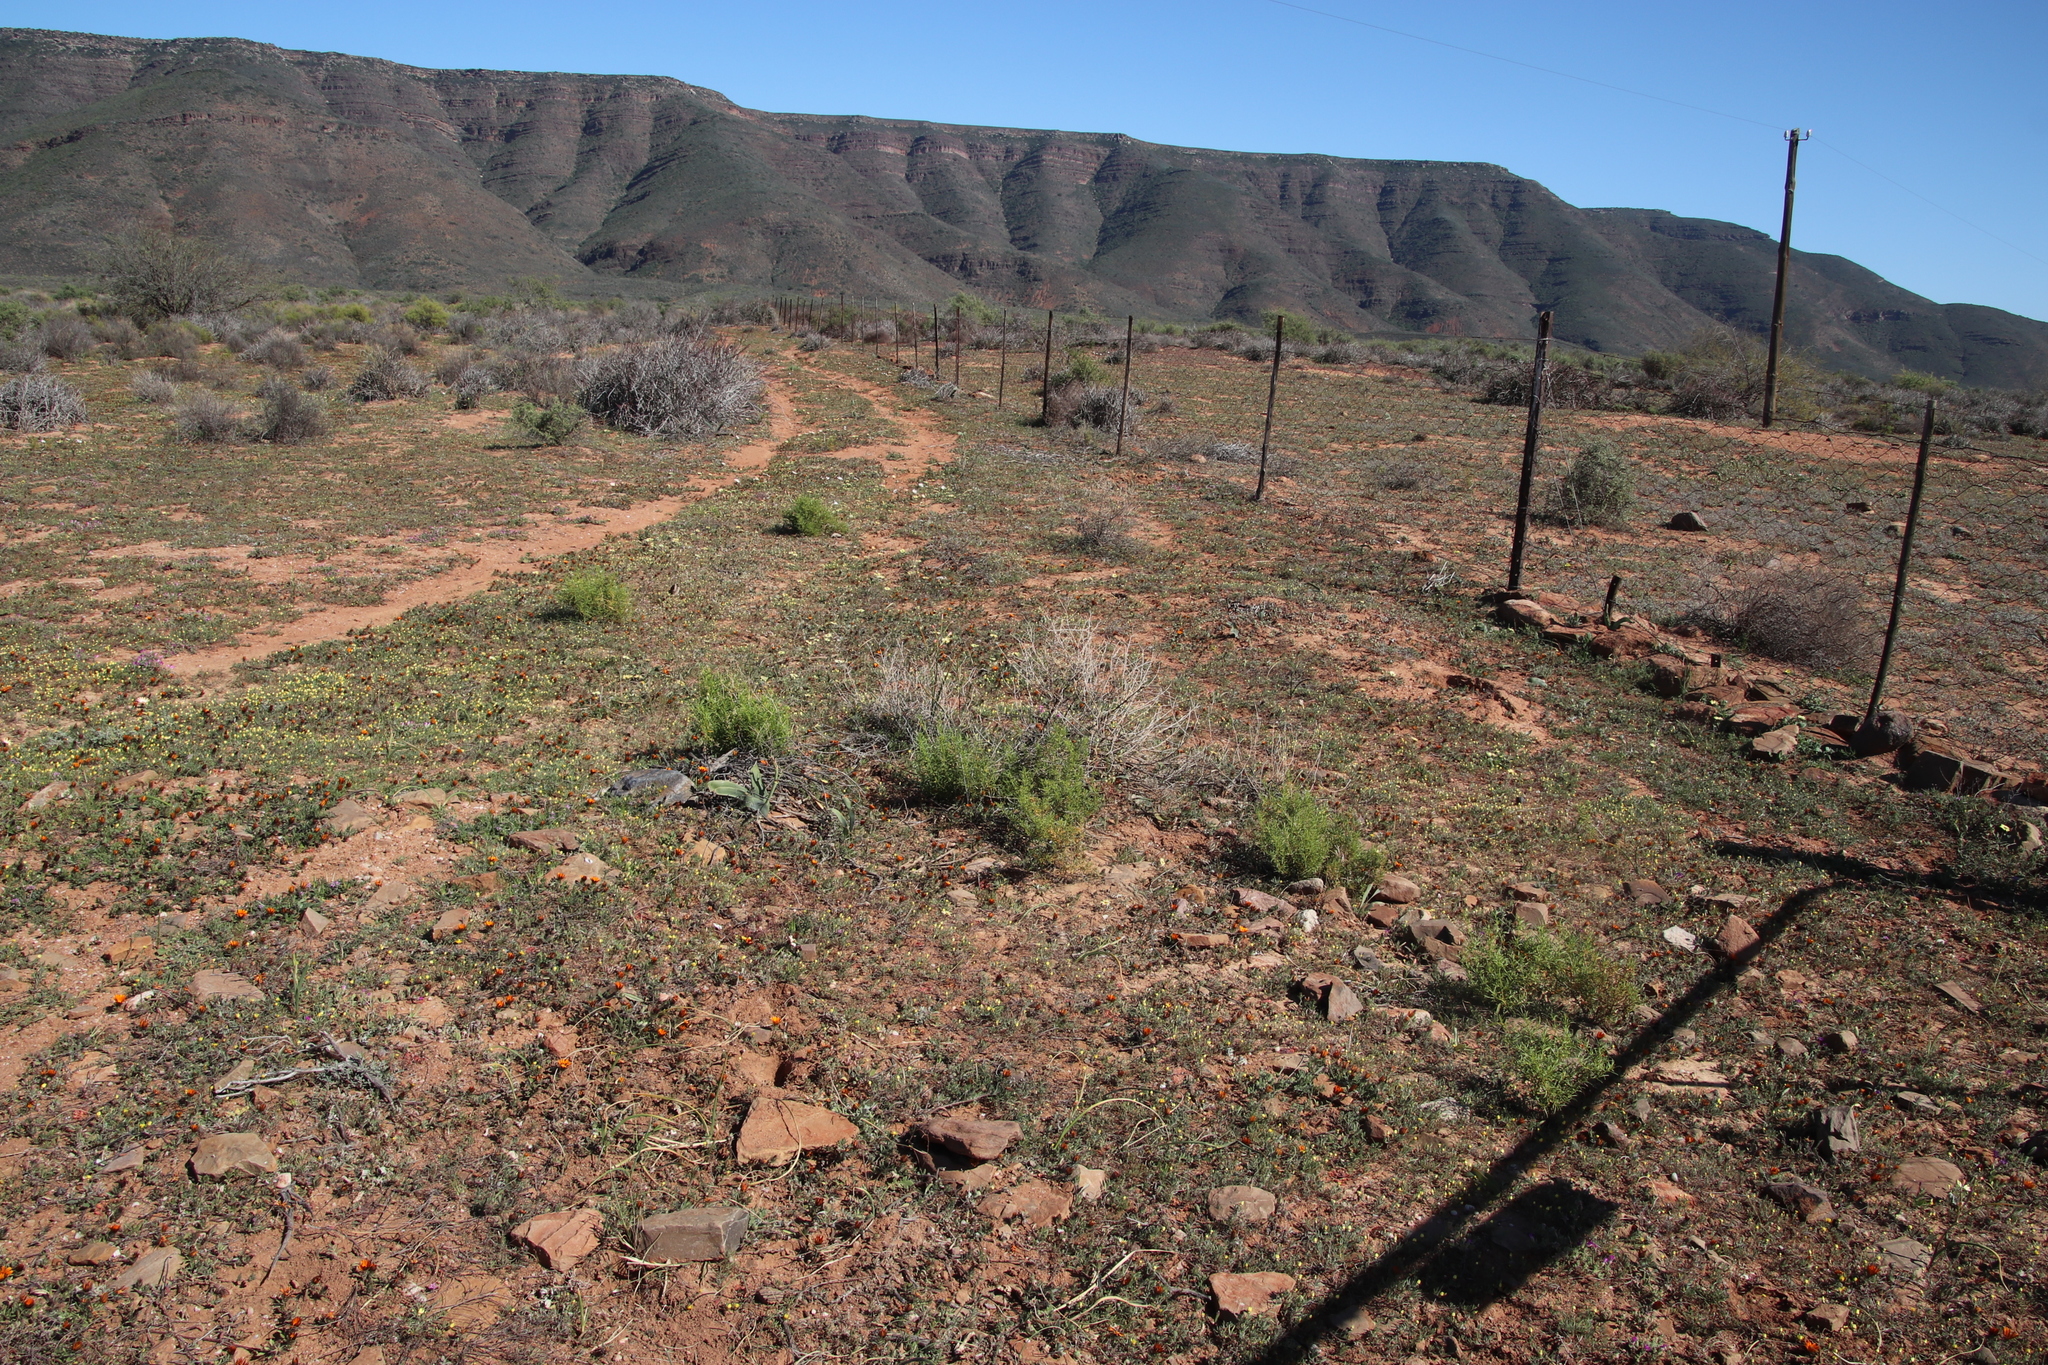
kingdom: Plantae
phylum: Tracheophyta
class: Magnoliopsida
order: Caryophyllales
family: Aizoaceae
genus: Aizoon
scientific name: Aizoon africanum
